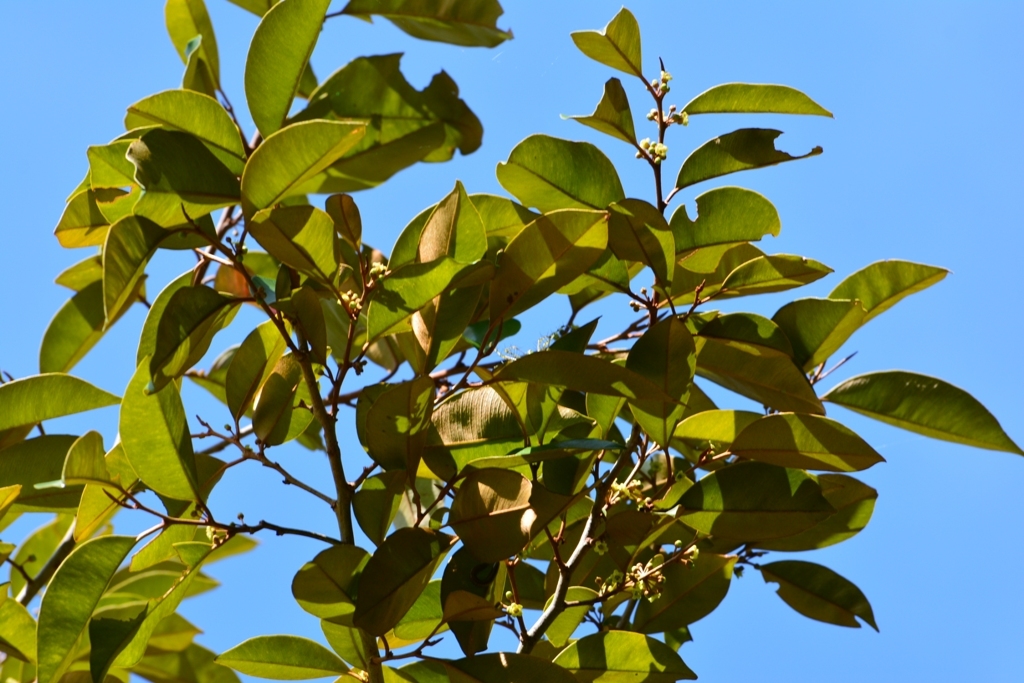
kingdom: Plantae
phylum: Tracheophyta
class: Magnoliopsida
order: Ericales
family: Sapotaceae
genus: Chrysophyllum
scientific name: Chrysophyllum mexicanum
